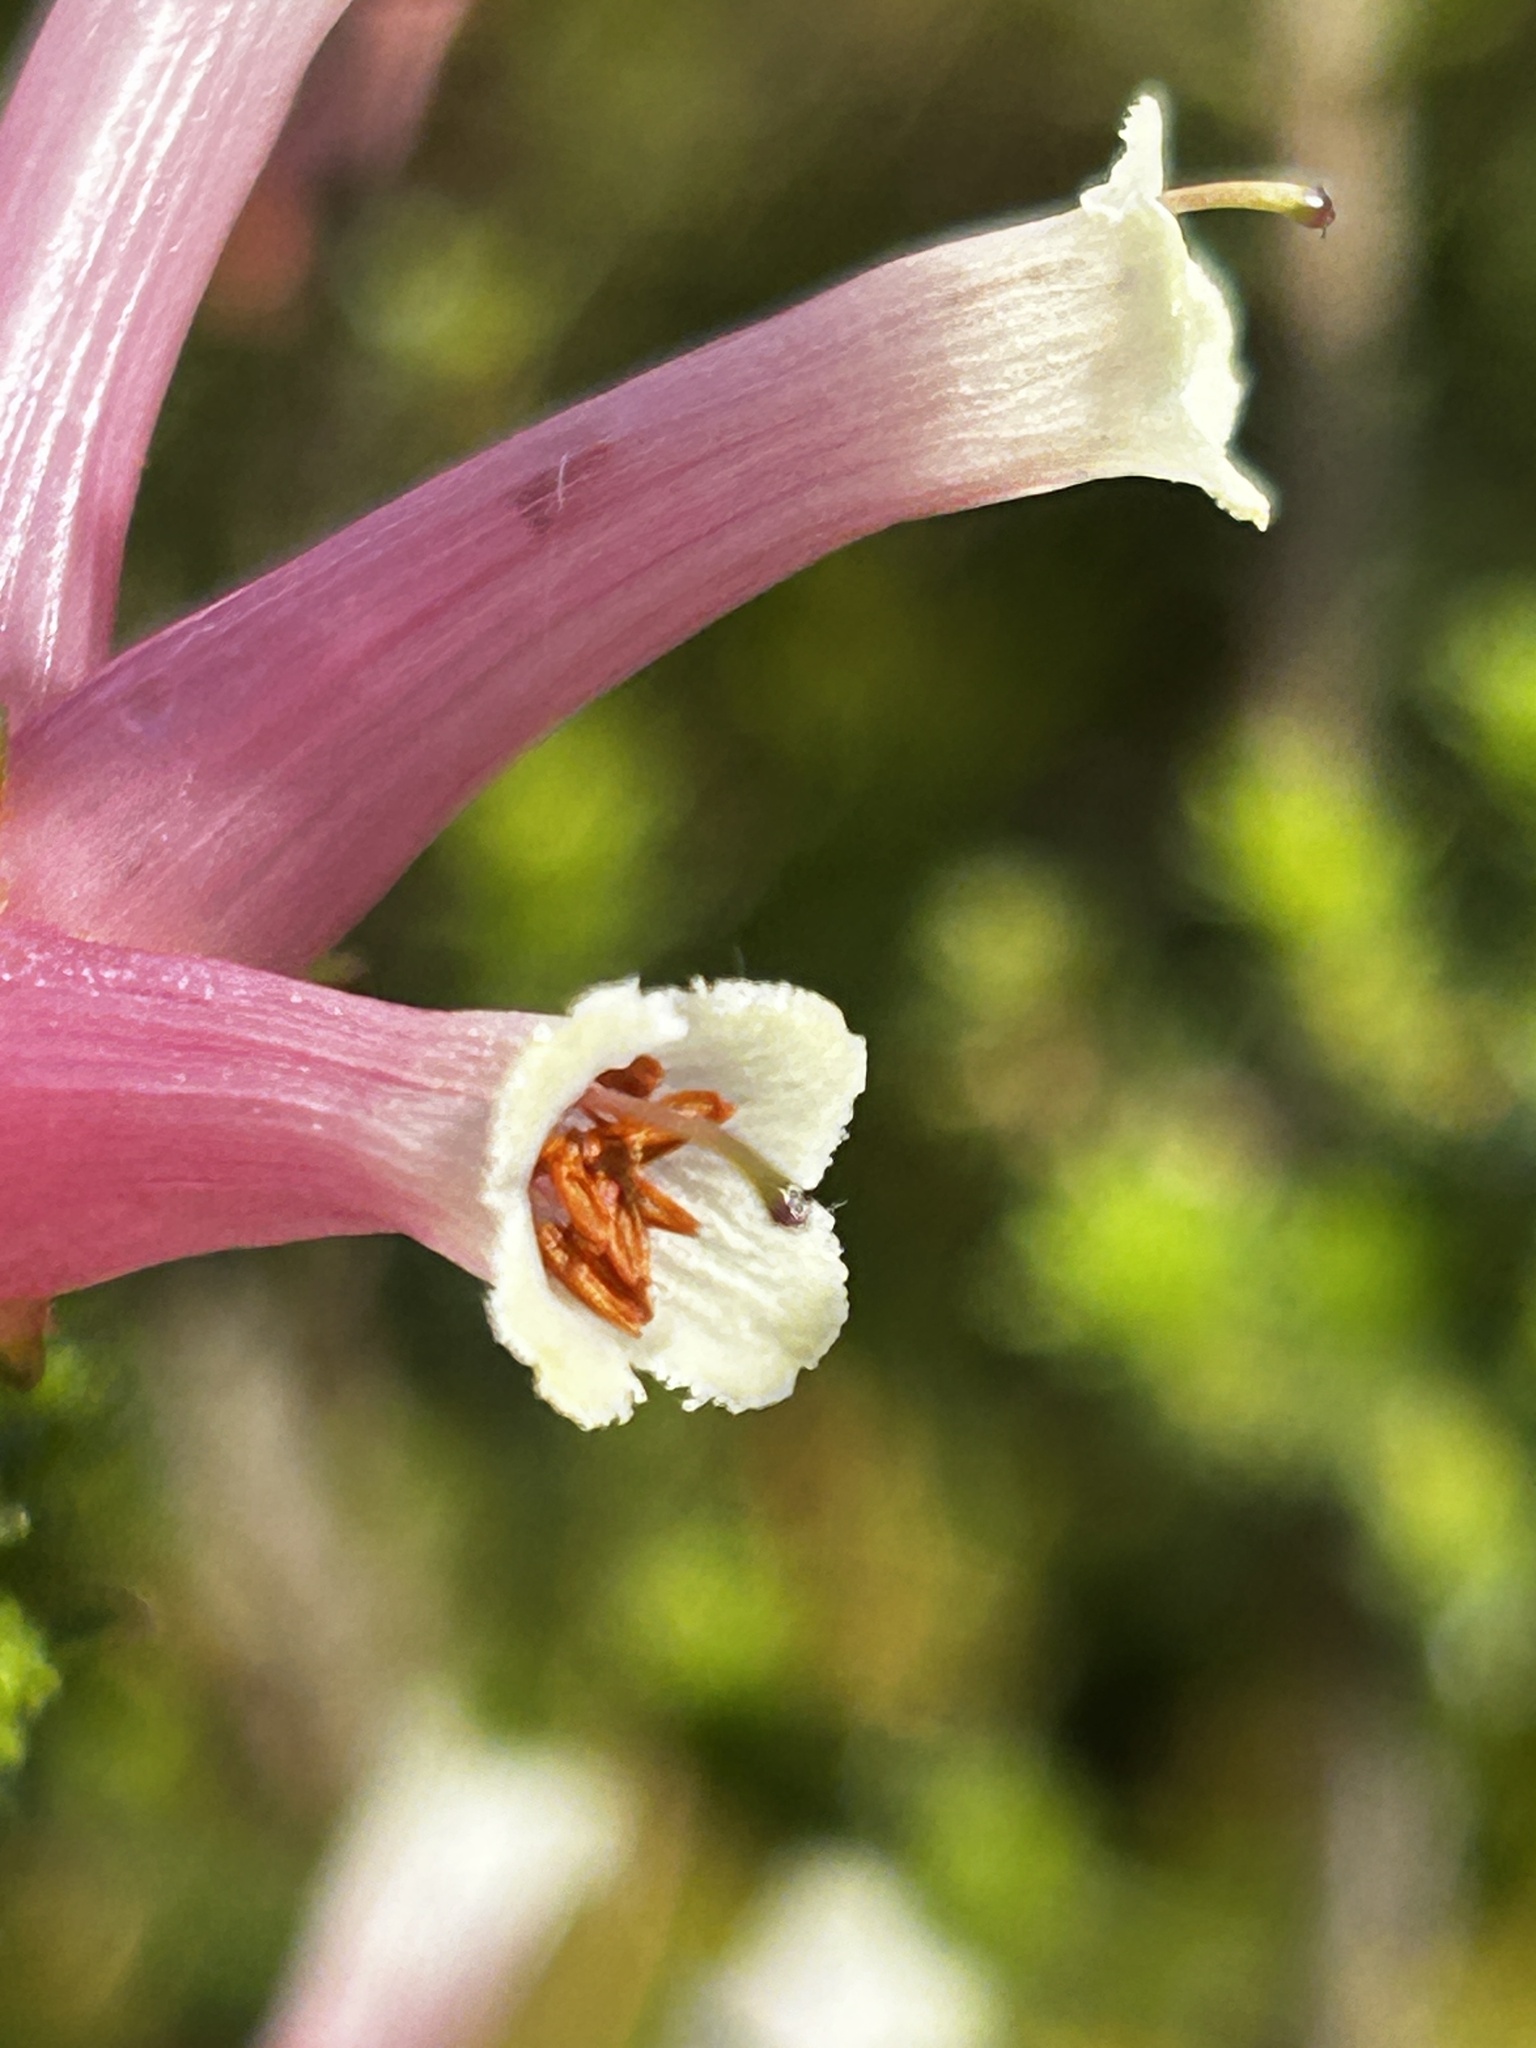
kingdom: Plantae
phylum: Tracheophyta
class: Magnoliopsida
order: Ericales
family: Ericaceae
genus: Erica
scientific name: Erica versicolor
